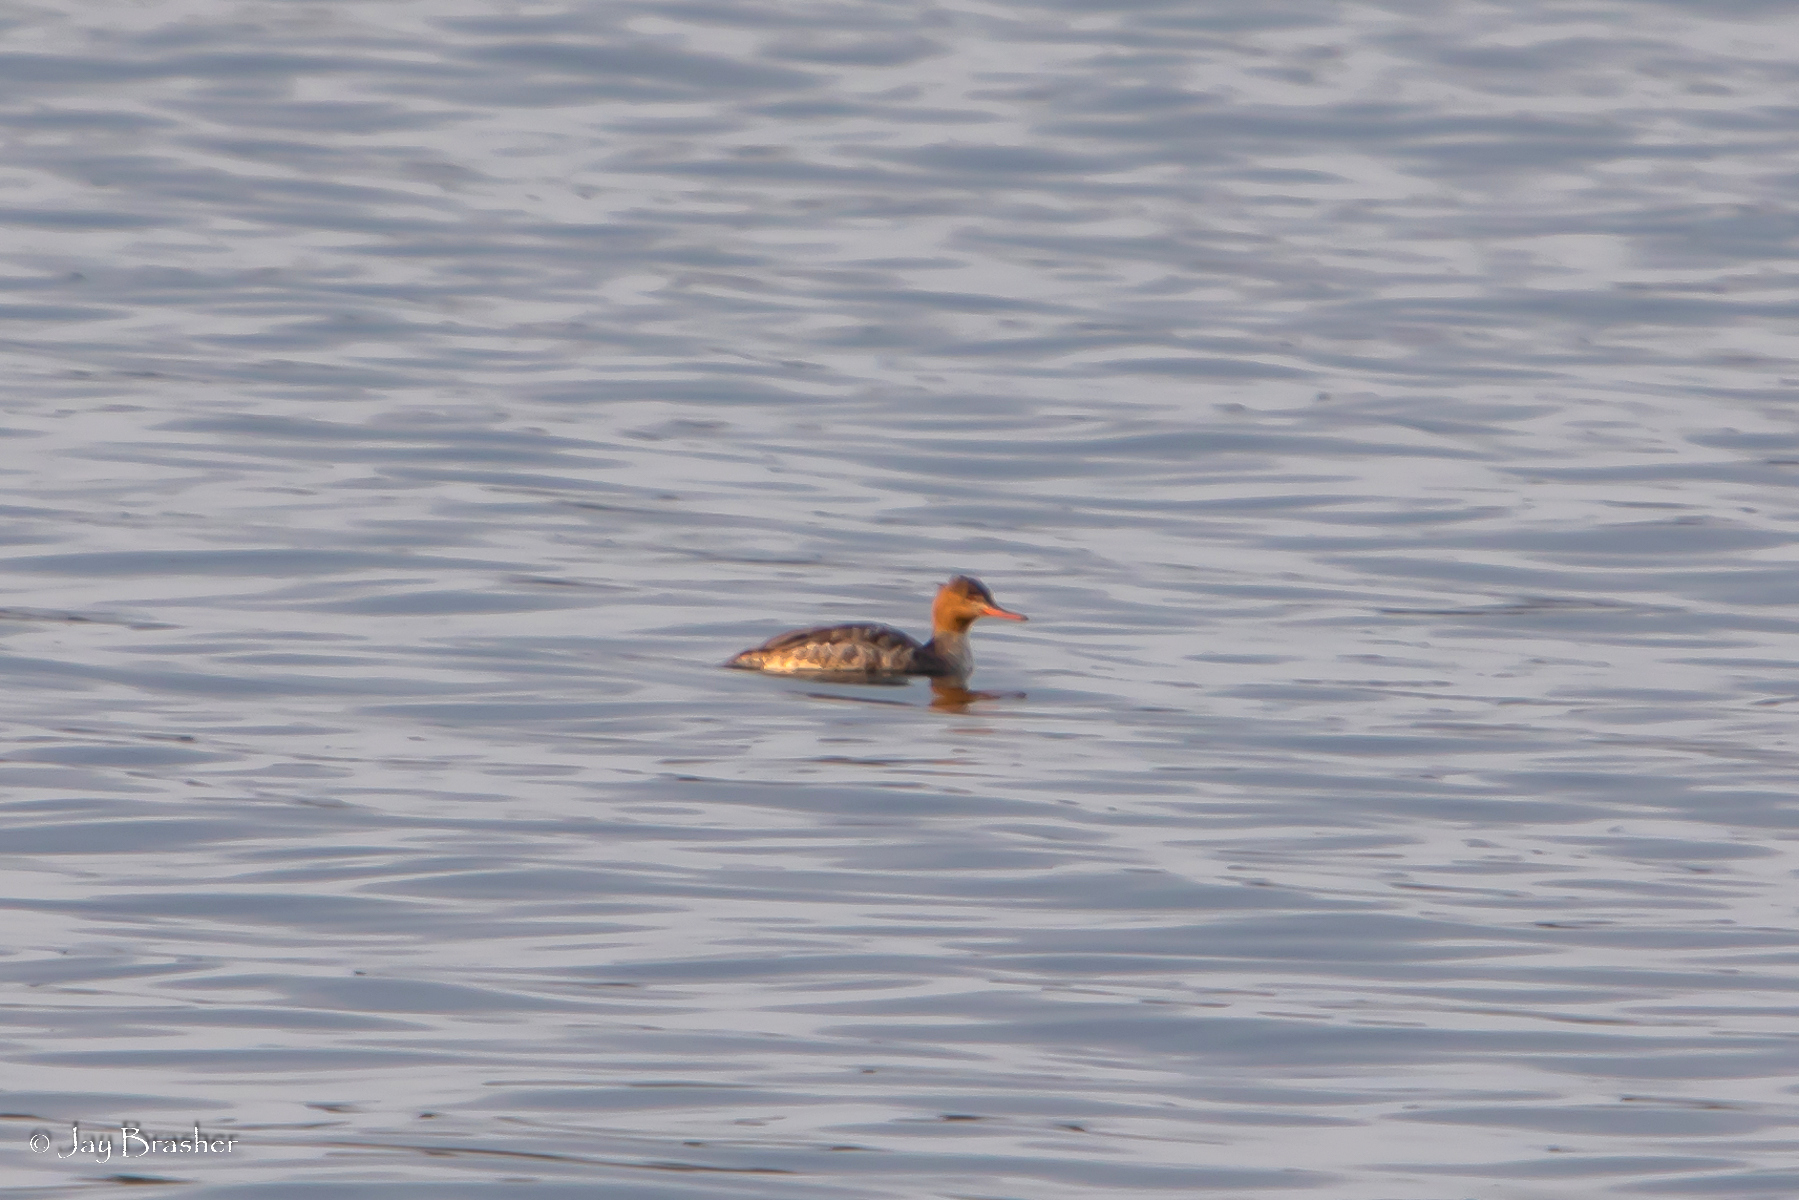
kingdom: Animalia
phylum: Chordata
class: Aves
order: Anseriformes
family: Anatidae
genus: Mergus
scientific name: Mergus serrator
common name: Red-breasted merganser
